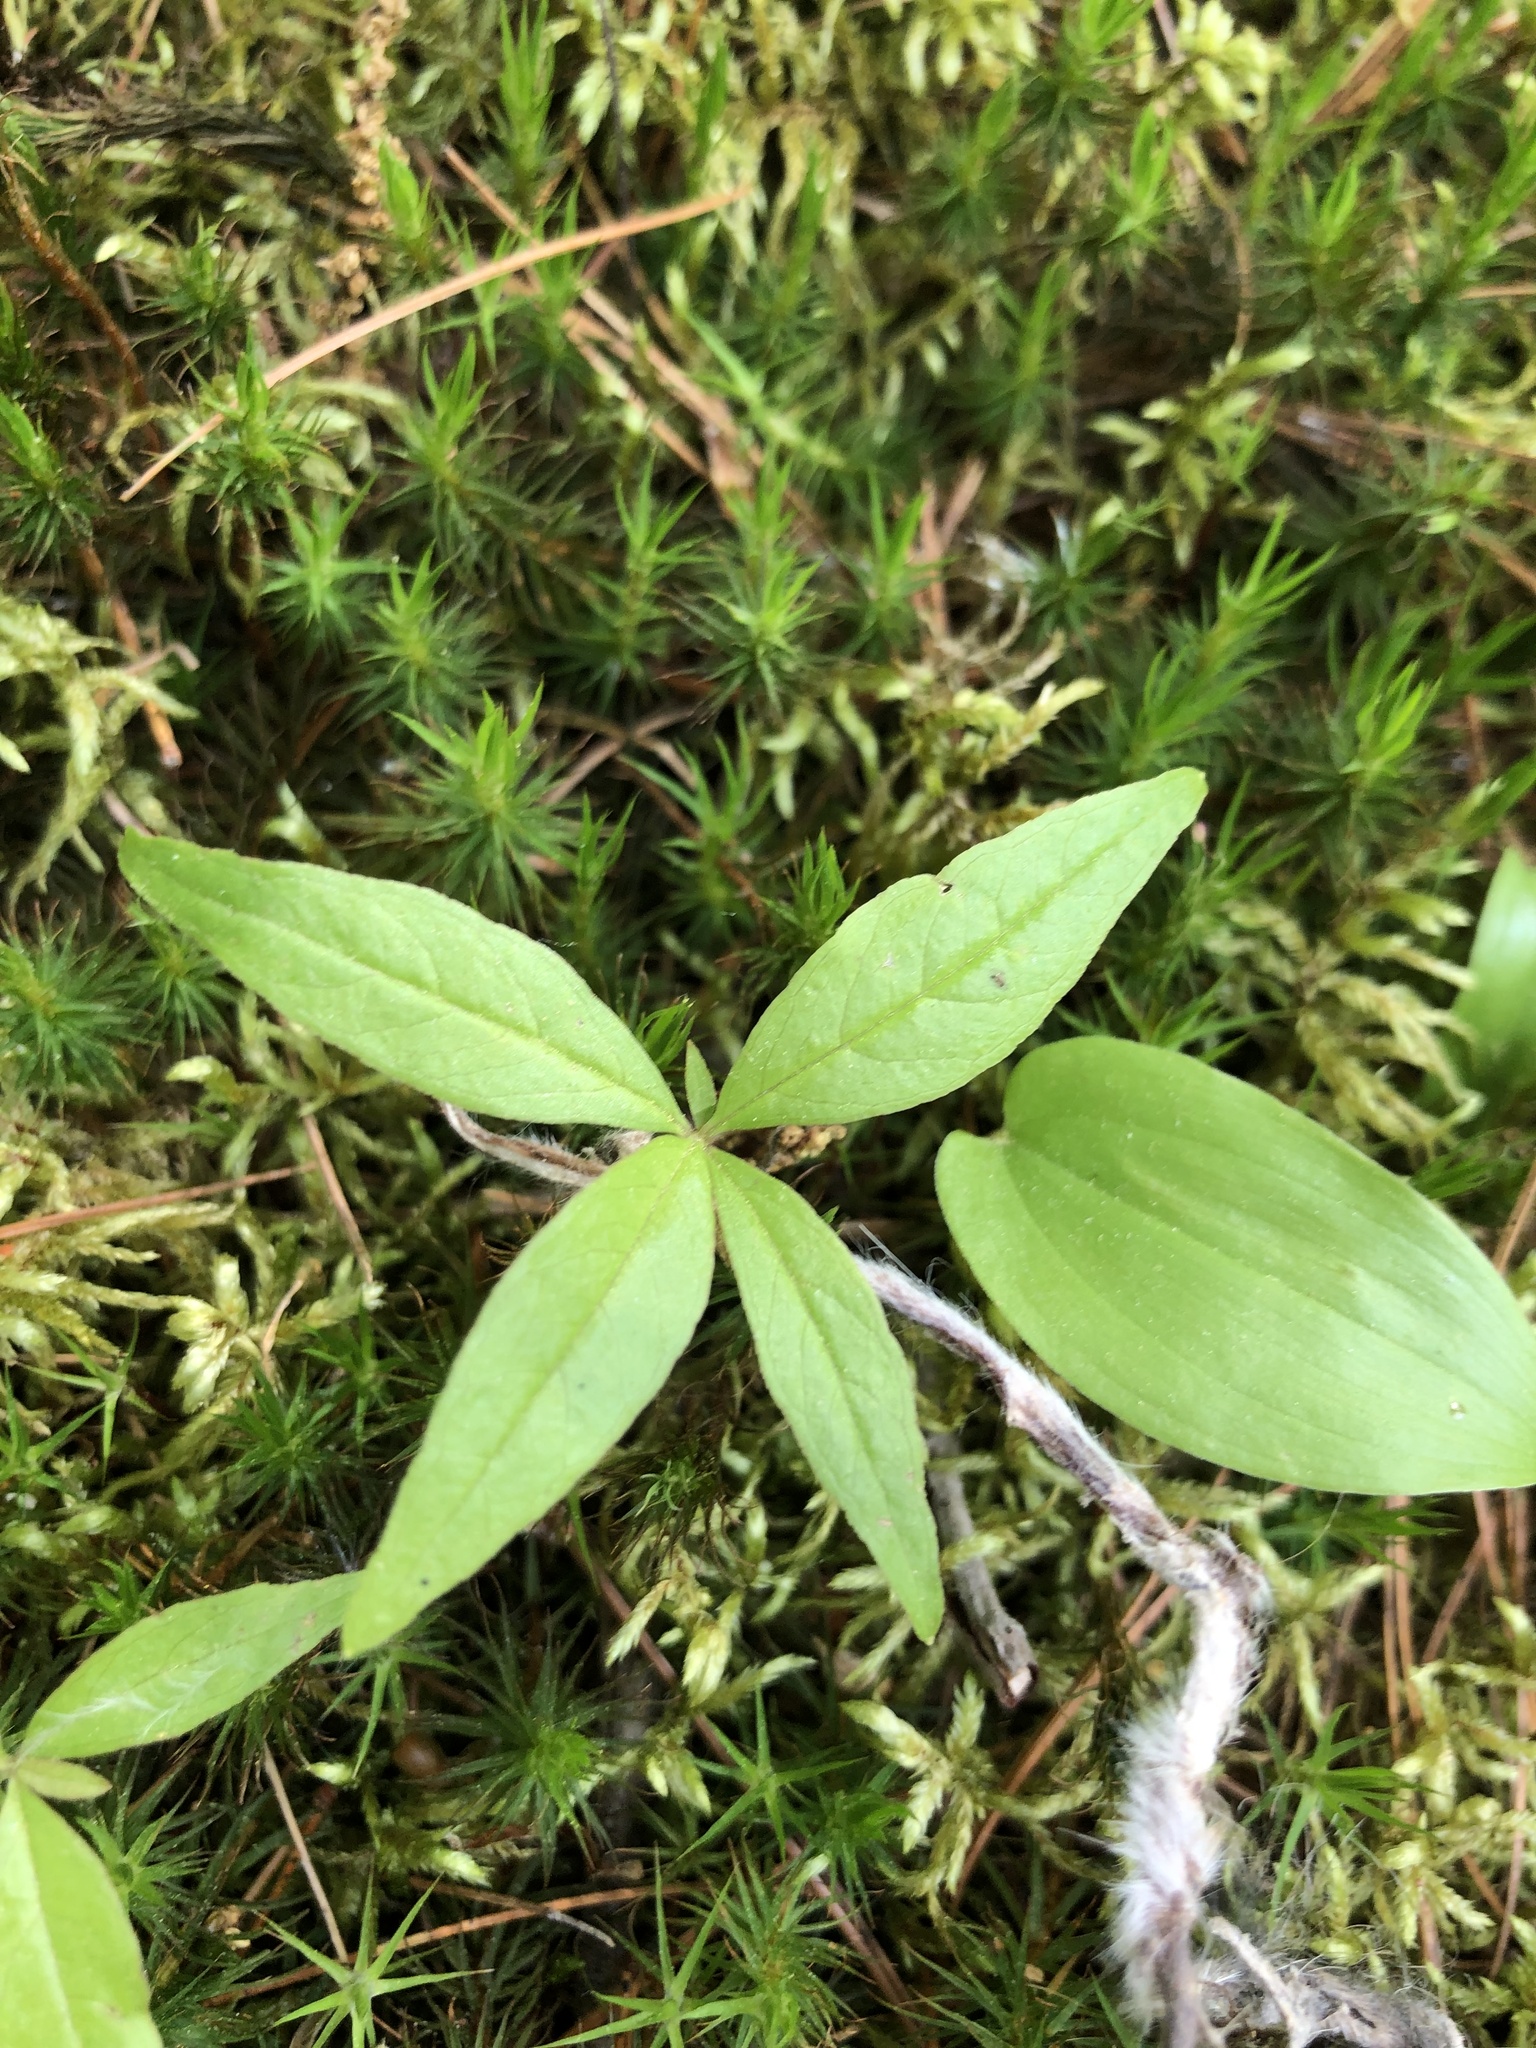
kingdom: Plantae
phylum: Tracheophyta
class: Magnoliopsida
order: Ericales
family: Primulaceae
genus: Lysimachia
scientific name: Lysimachia borealis
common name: American starflower
